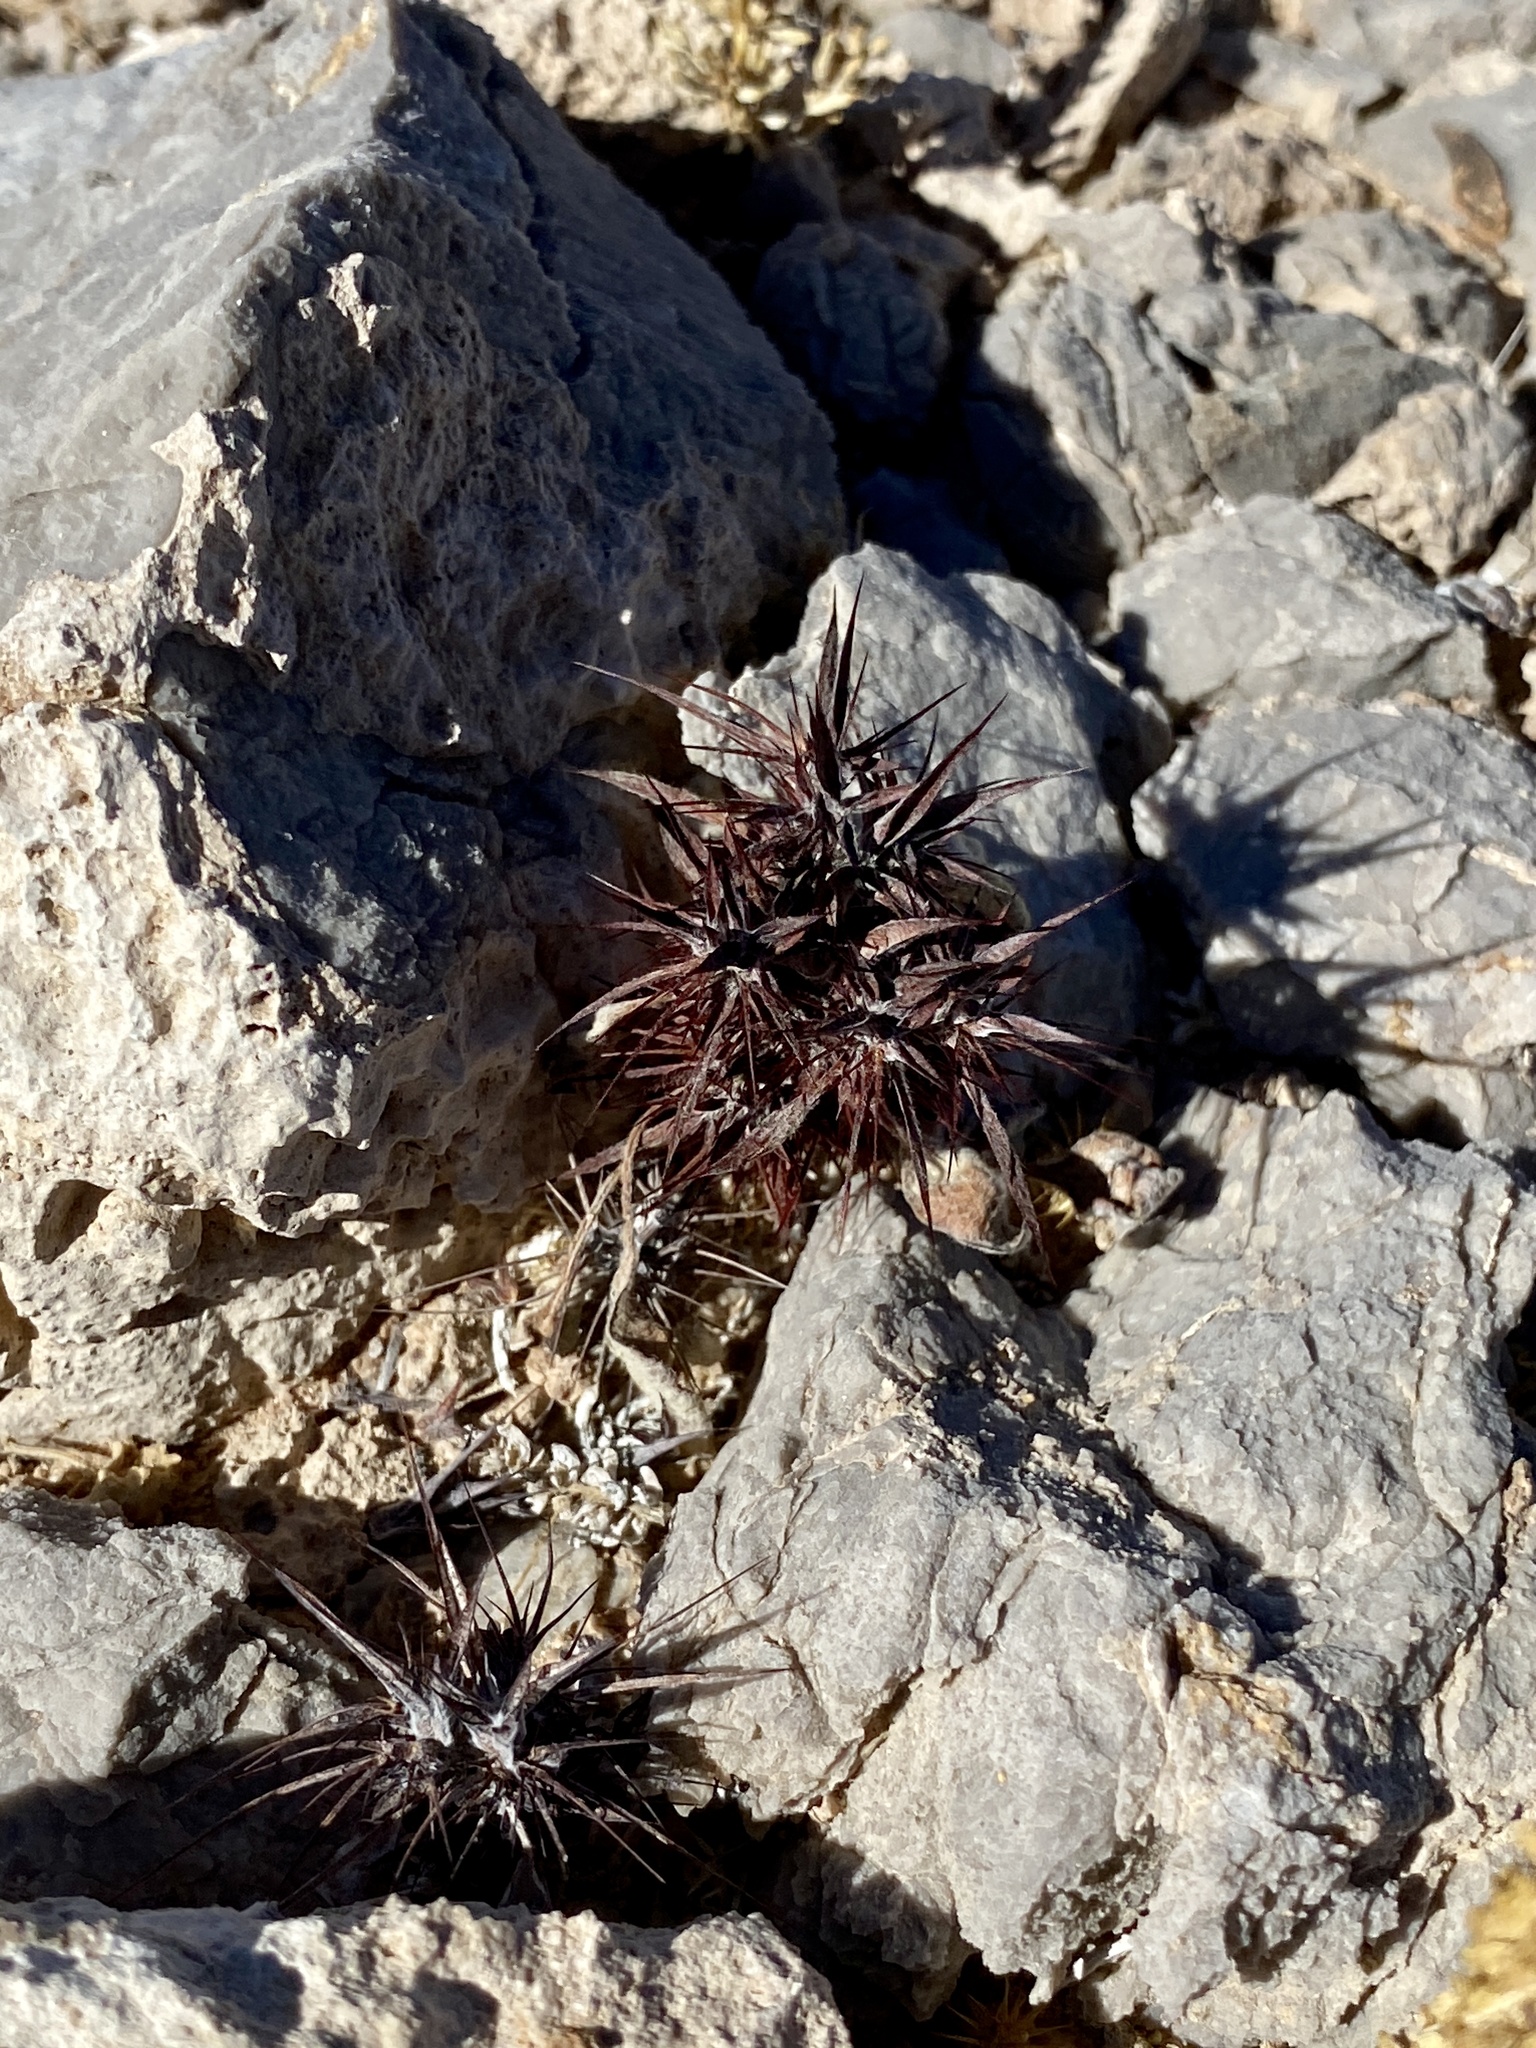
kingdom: Plantae
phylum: Tracheophyta
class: Magnoliopsida
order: Caryophyllales
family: Polygonaceae
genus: Chorizanthe
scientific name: Chorizanthe rigida
